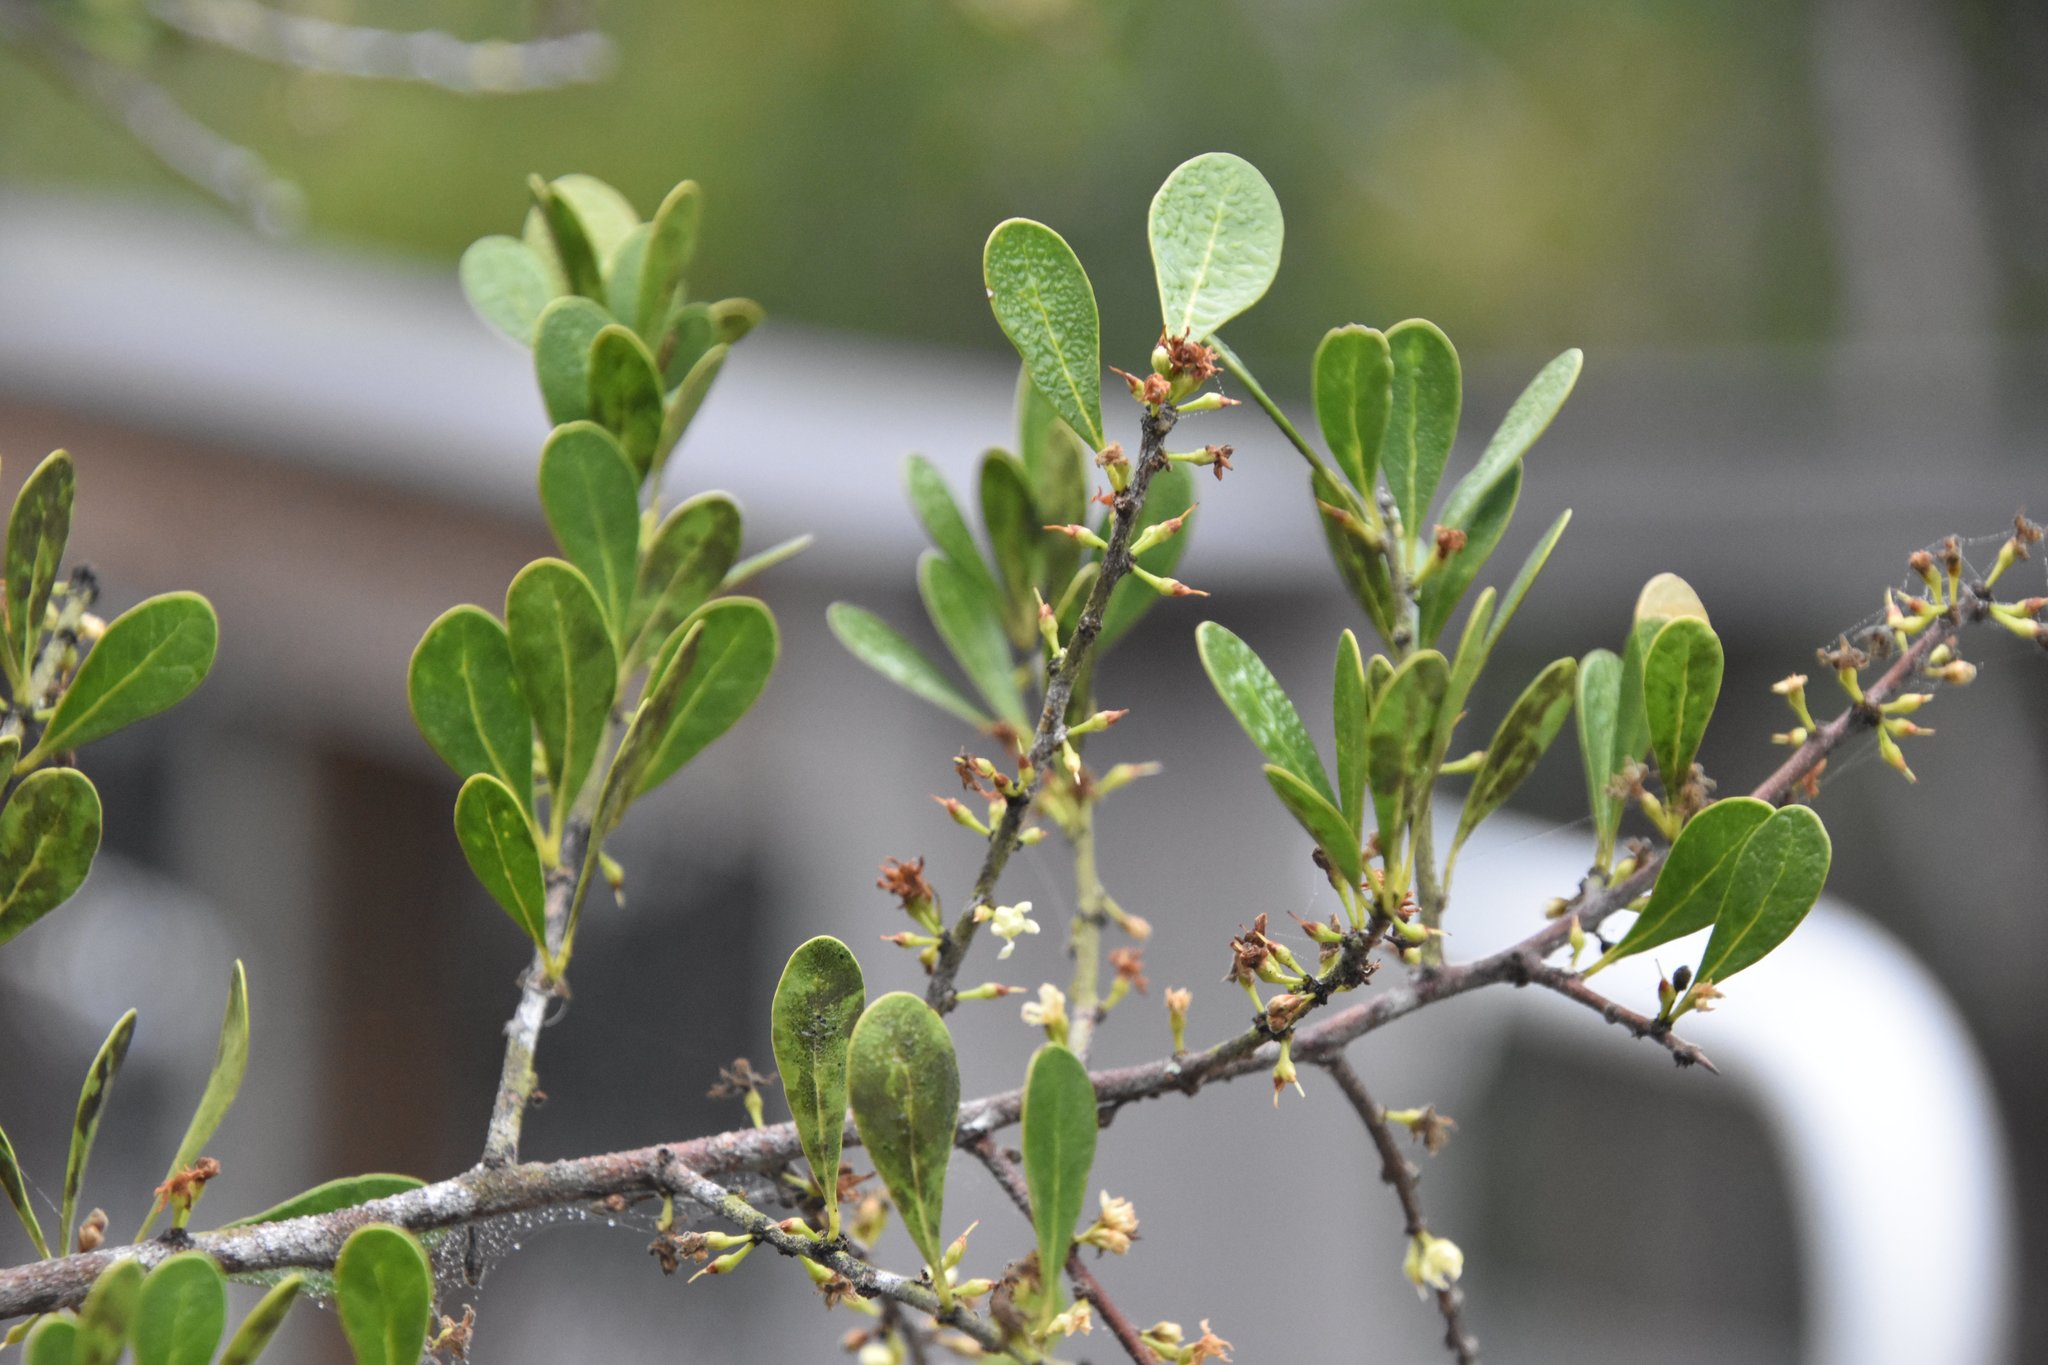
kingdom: Plantae
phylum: Tracheophyta
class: Magnoliopsida
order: Ericales
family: Sapotaceae
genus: Sideroxylon
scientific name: Sideroxylon celastrinum
